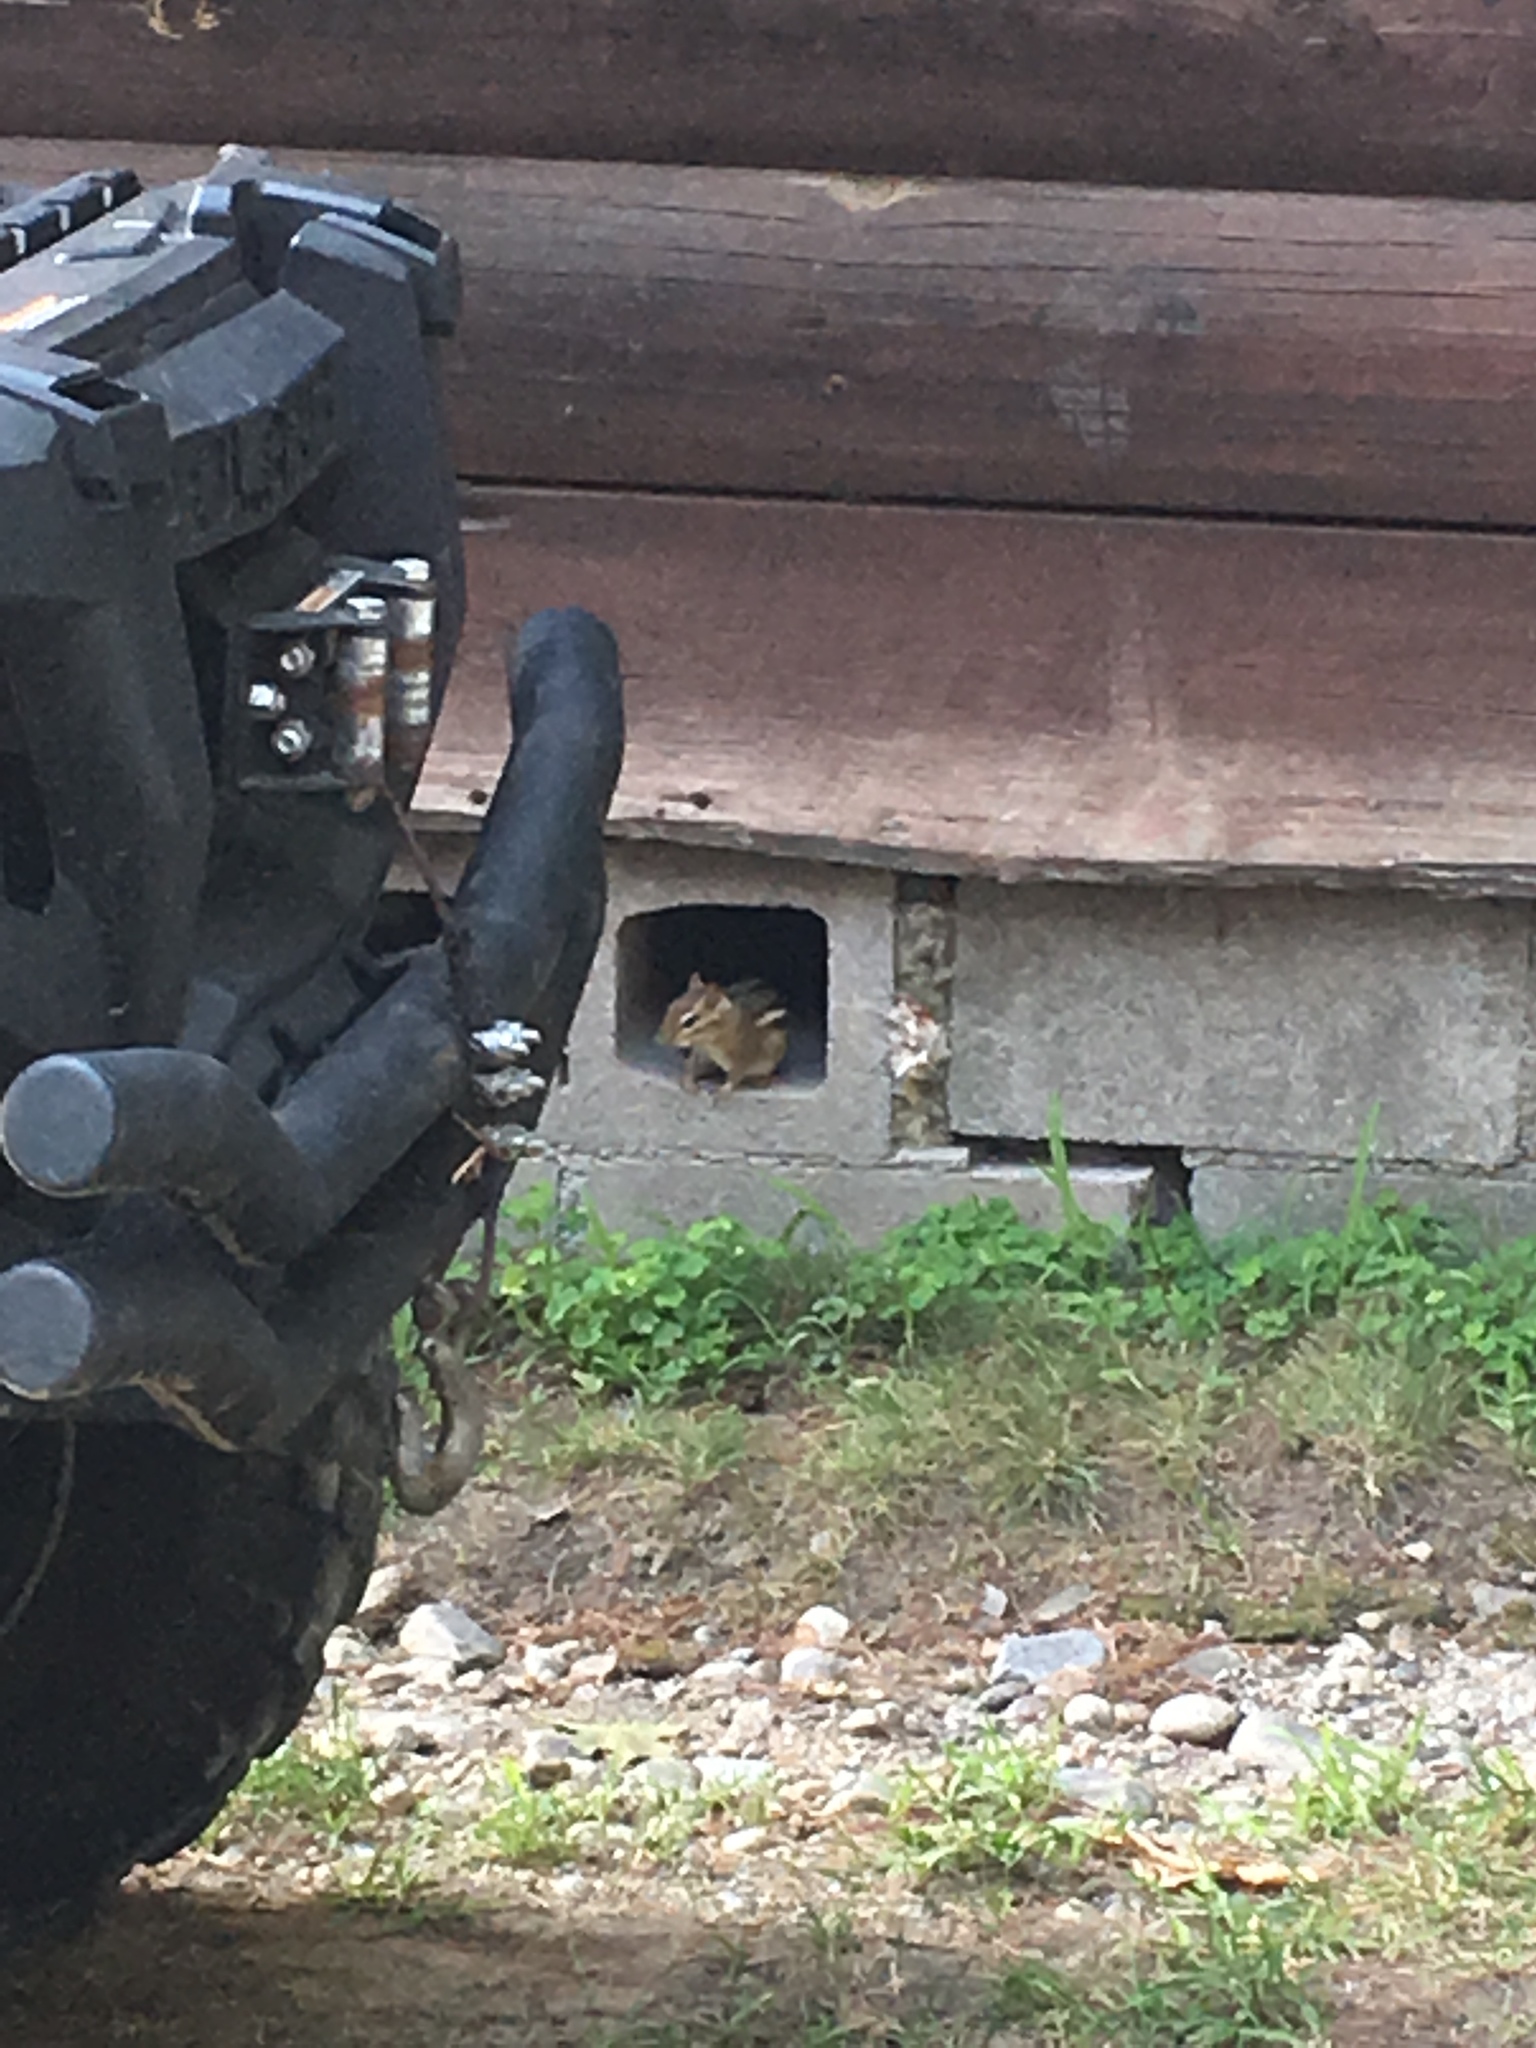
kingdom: Animalia
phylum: Chordata
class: Mammalia
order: Rodentia
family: Sciuridae
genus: Tamias
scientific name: Tamias striatus
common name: Eastern chipmunk
